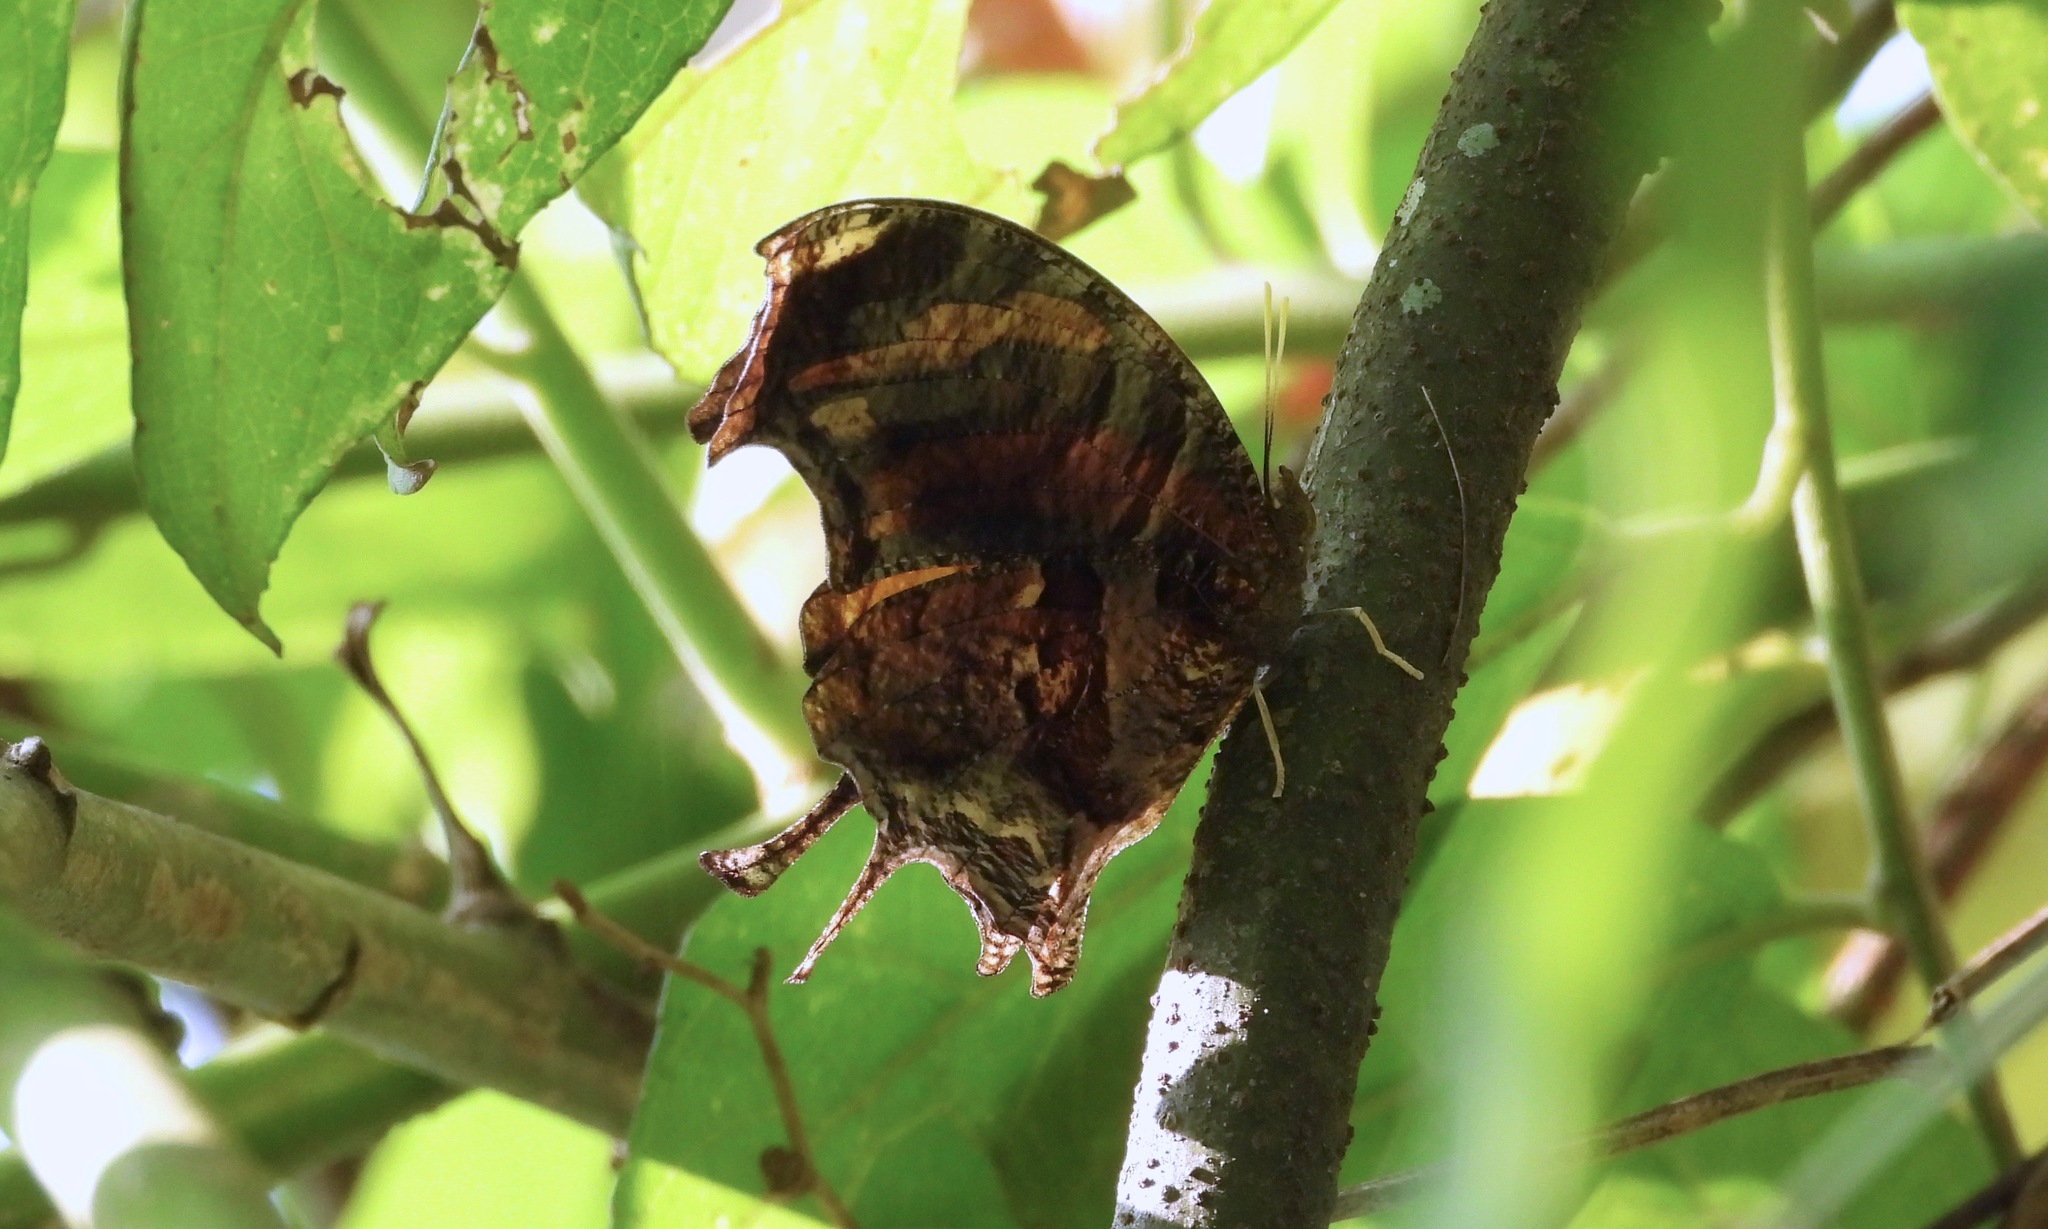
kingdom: Animalia
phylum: Arthropoda
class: Insecta
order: Lepidoptera
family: Nymphalidae
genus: Consul
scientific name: Consul fabius
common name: Tiger leafwing
